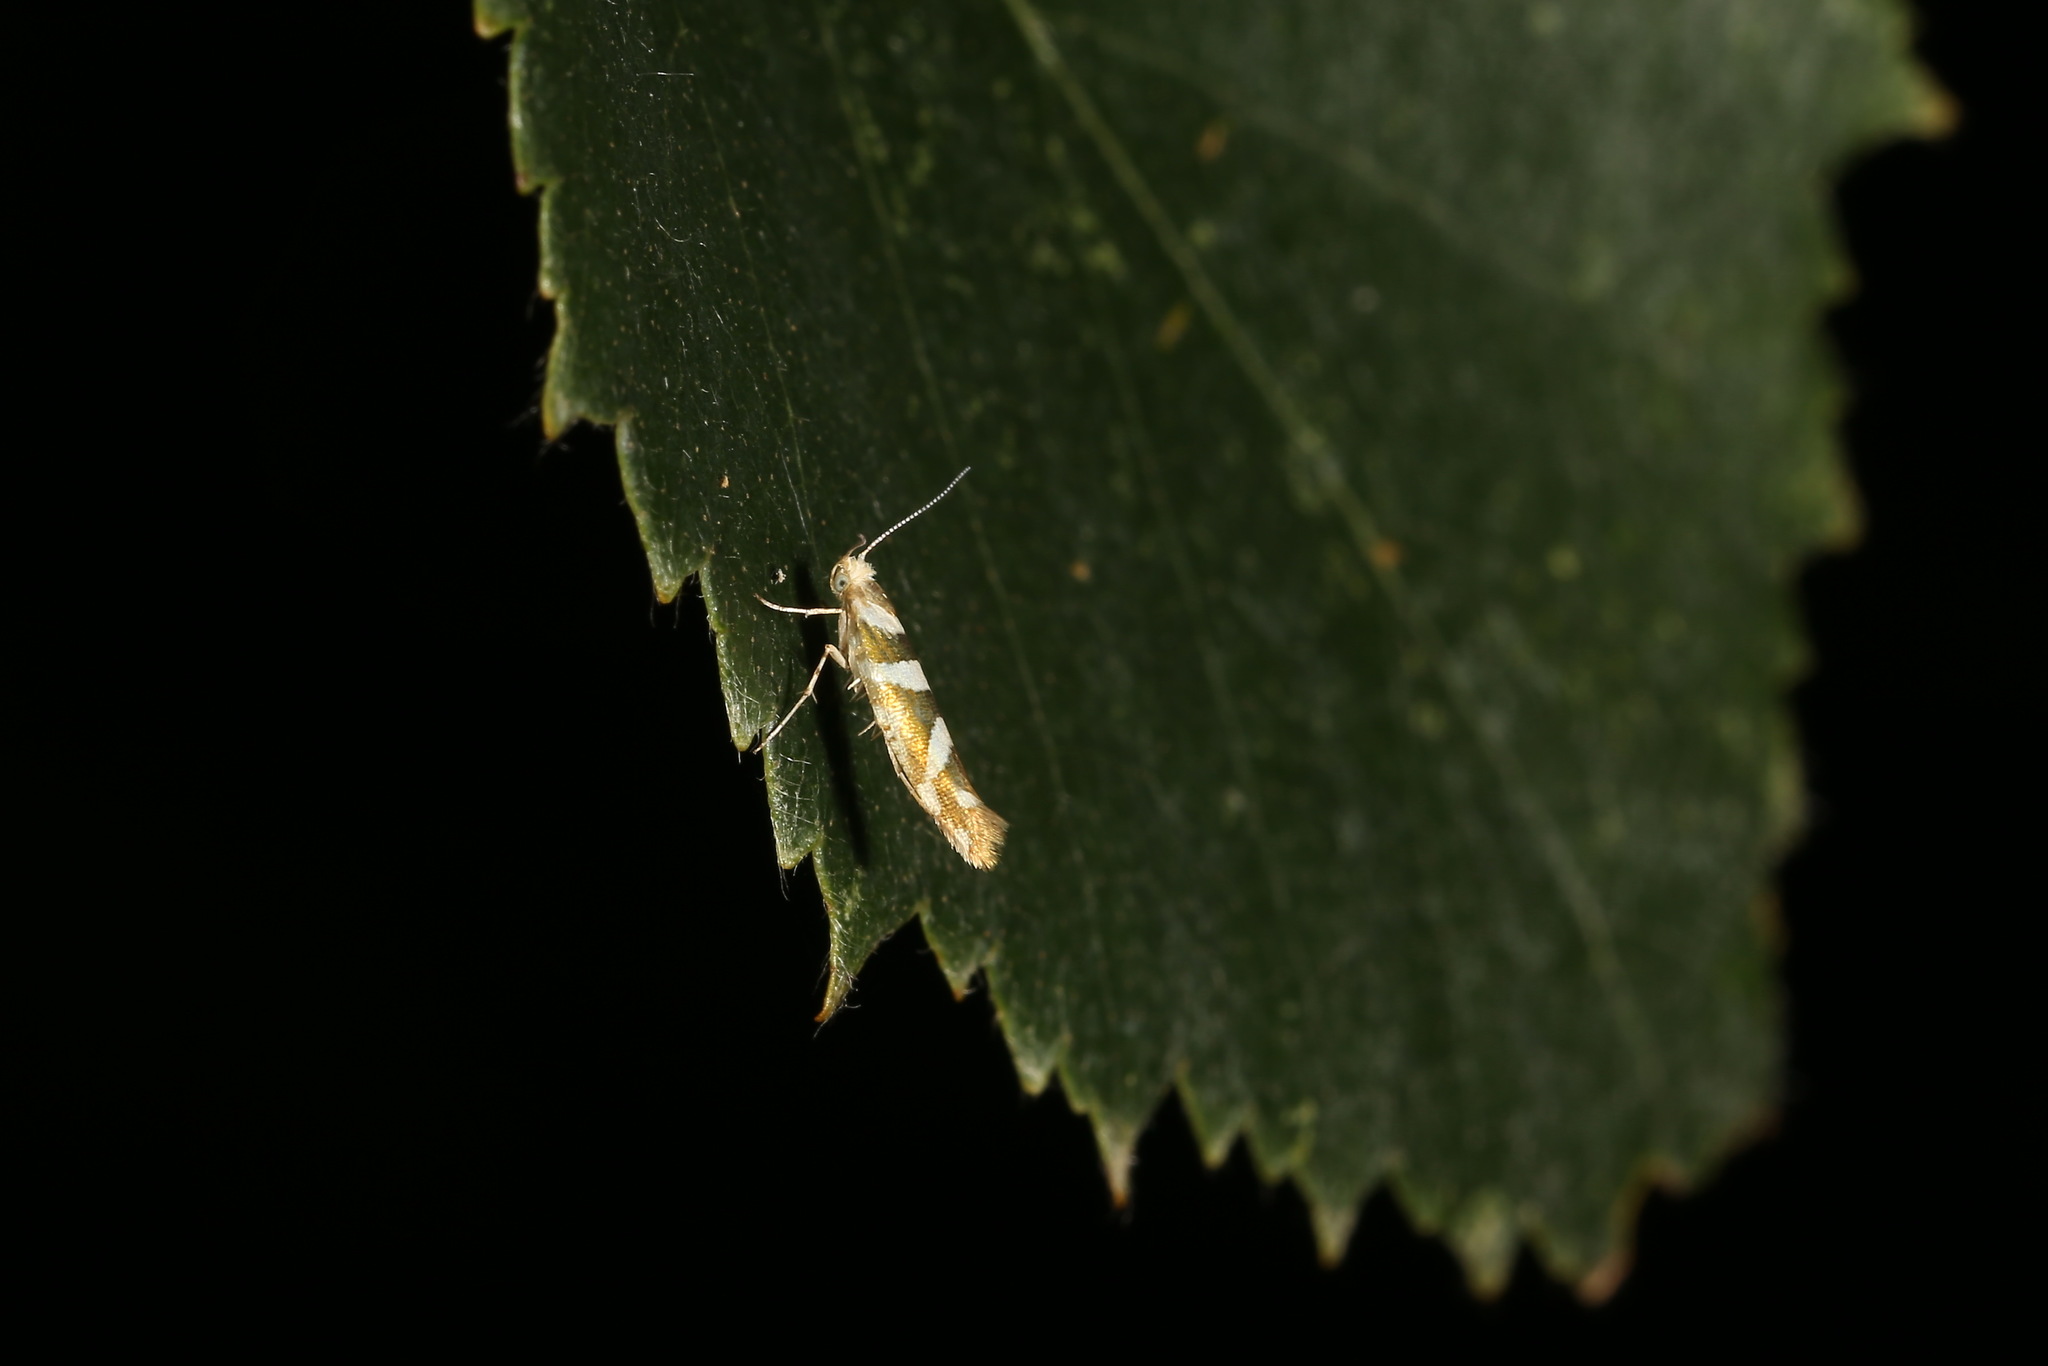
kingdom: Animalia
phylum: Arthropoda
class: Insecta
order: Lepidoptera
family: Argyresthiidae
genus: Argyresthia
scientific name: Argyresthia goedartella
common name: Golden argent
